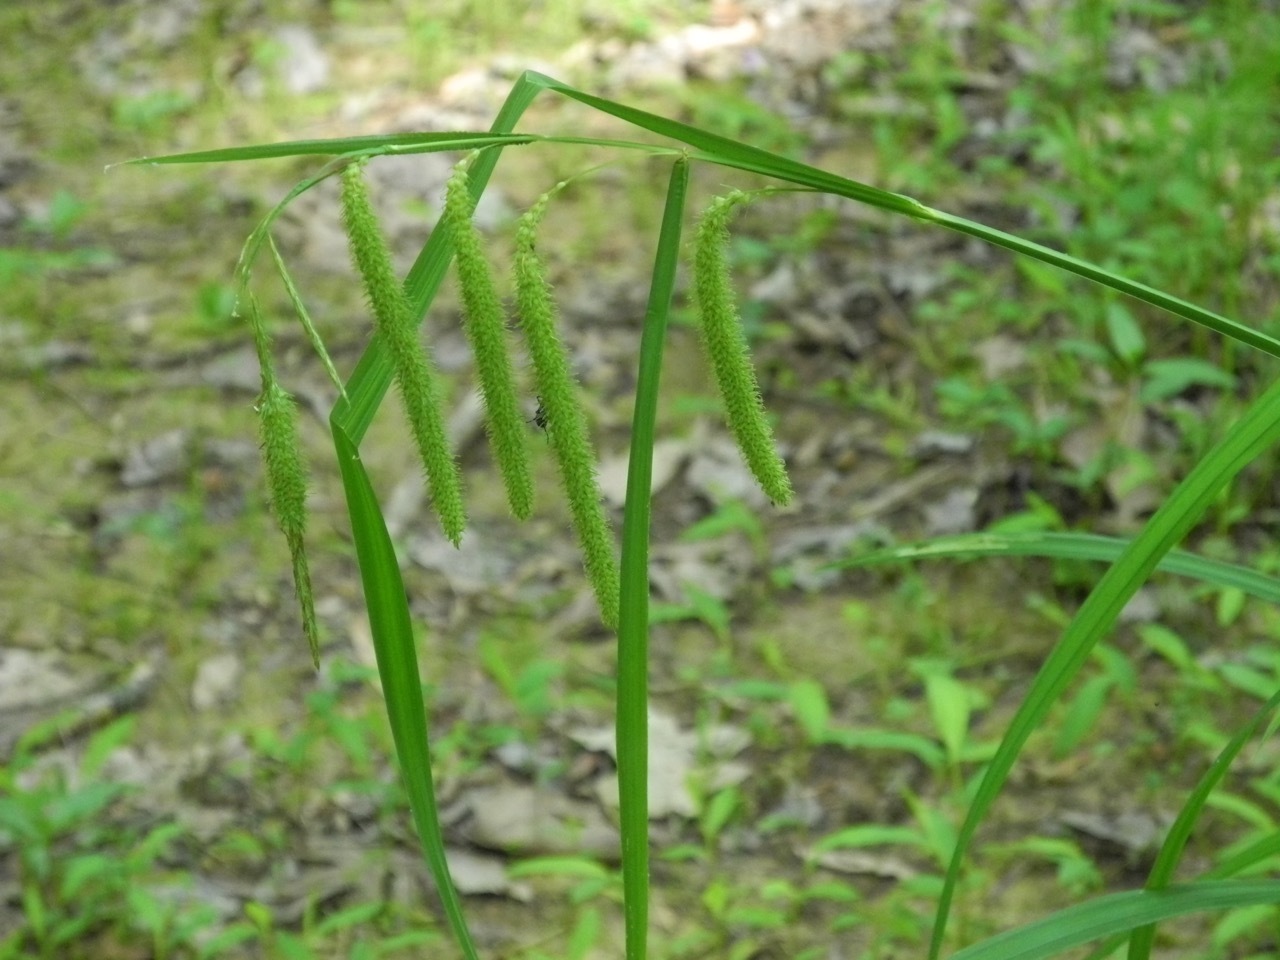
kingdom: Plantae
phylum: Tracheophyta
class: Liliopsida
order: Poales
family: Cyperaceae
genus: Carex
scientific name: Carex crinita
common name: Fringed sedge
